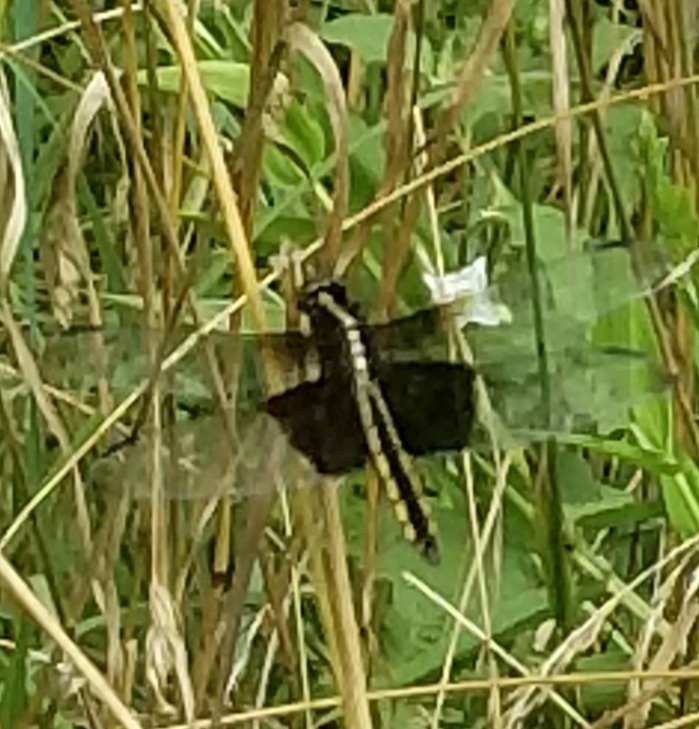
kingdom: Animalia
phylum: Arthropoda
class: Insecta
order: Odonata
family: Libellulidae
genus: Libellula
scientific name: Libellula luctuosa
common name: Widow skimmer
